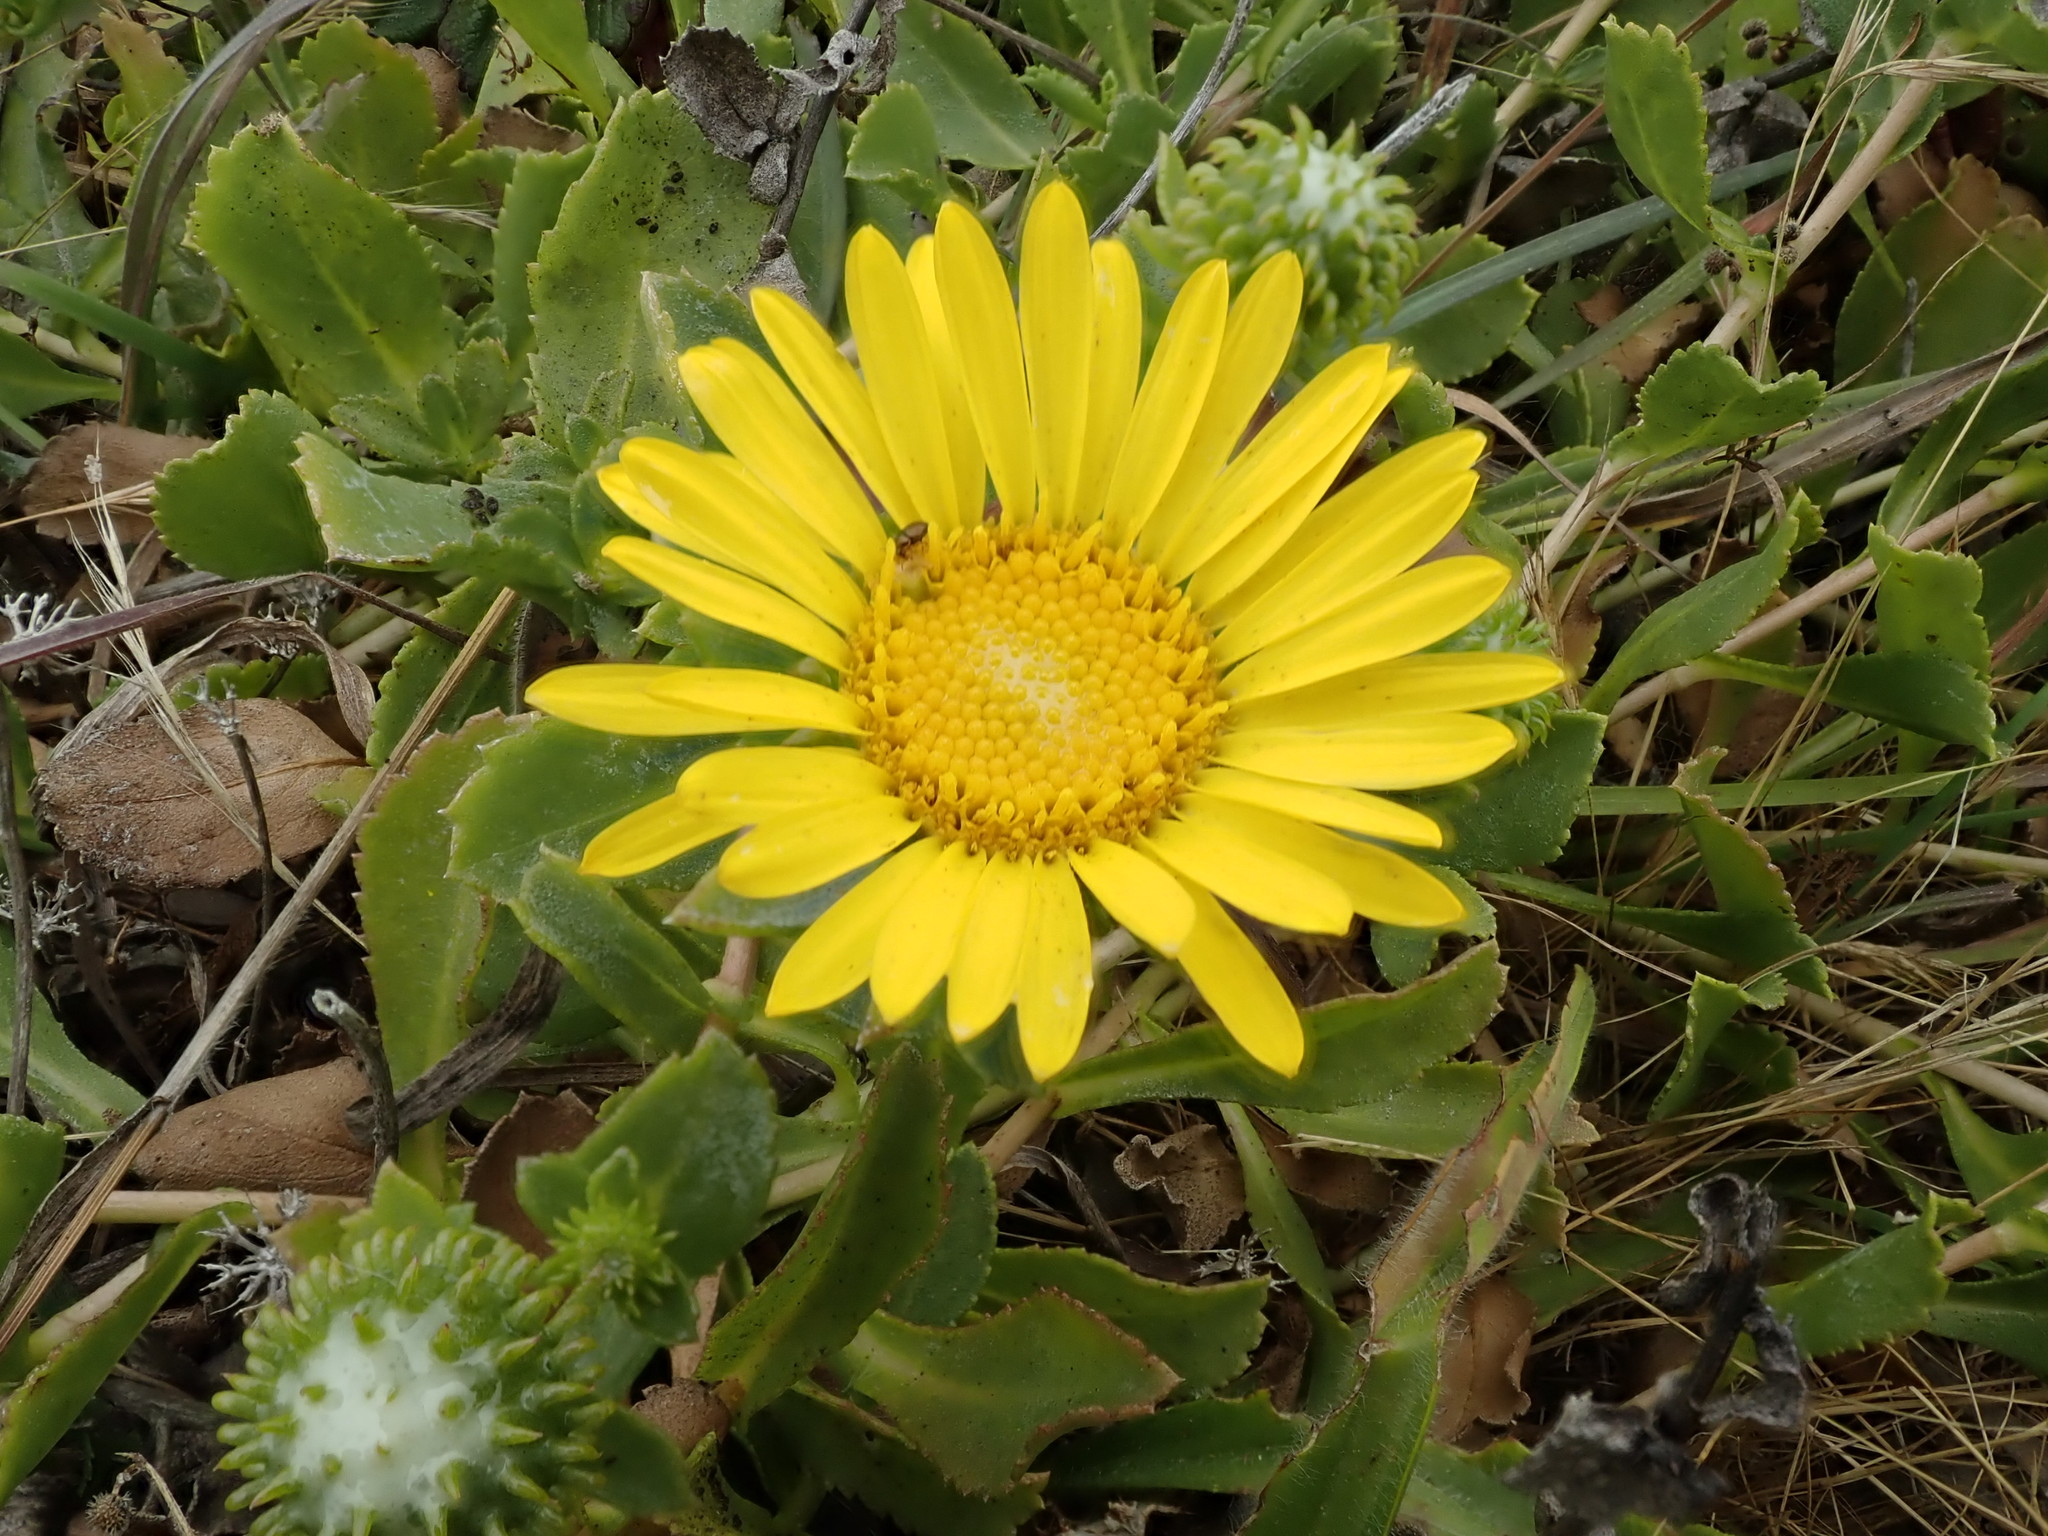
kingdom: Plantae
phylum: Tracheophyta
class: Magnoliopsida
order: Asterales
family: Asteraceae
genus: Grindelia
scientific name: Grindelia hirsutula
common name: Hairy gumweed
